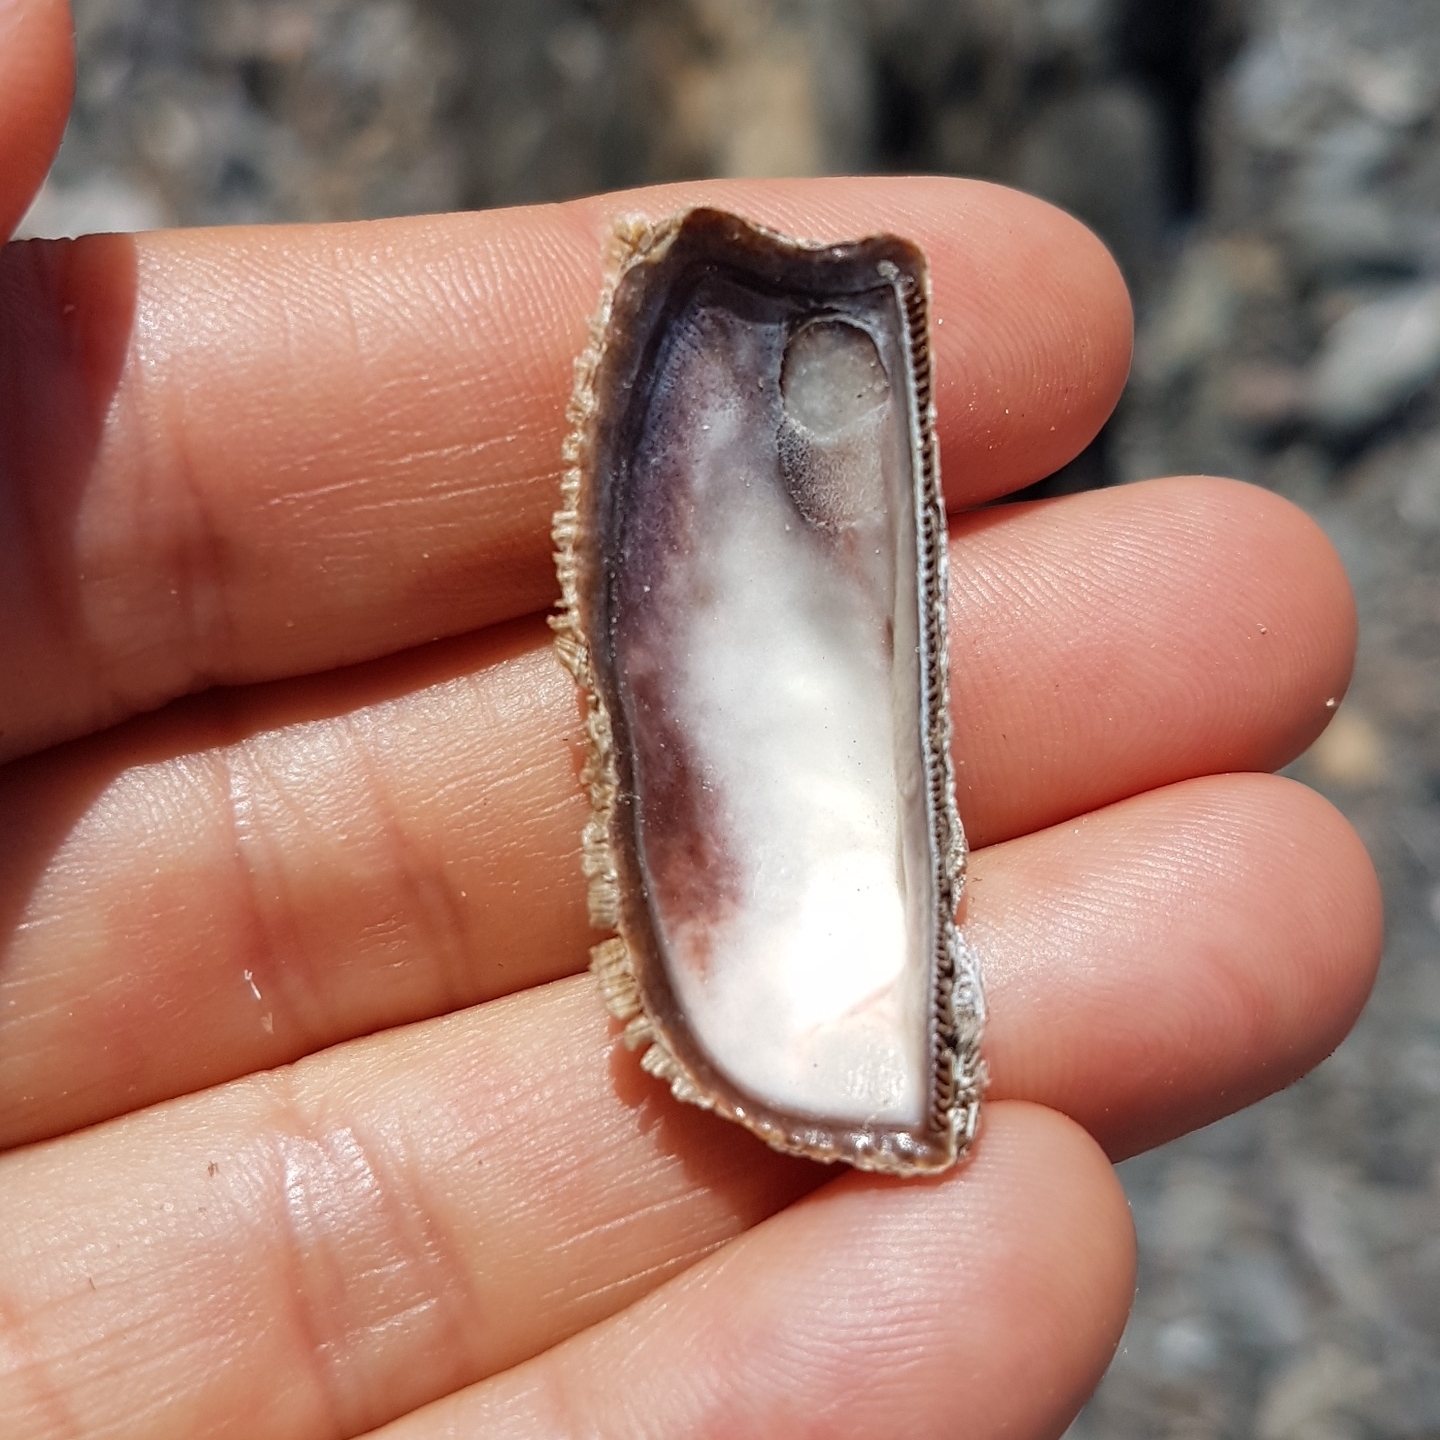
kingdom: Animalia
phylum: Mollusca
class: Bivalvia
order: Arcida
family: Arcidae
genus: Arca
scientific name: Arca noae
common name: Noah's arch
